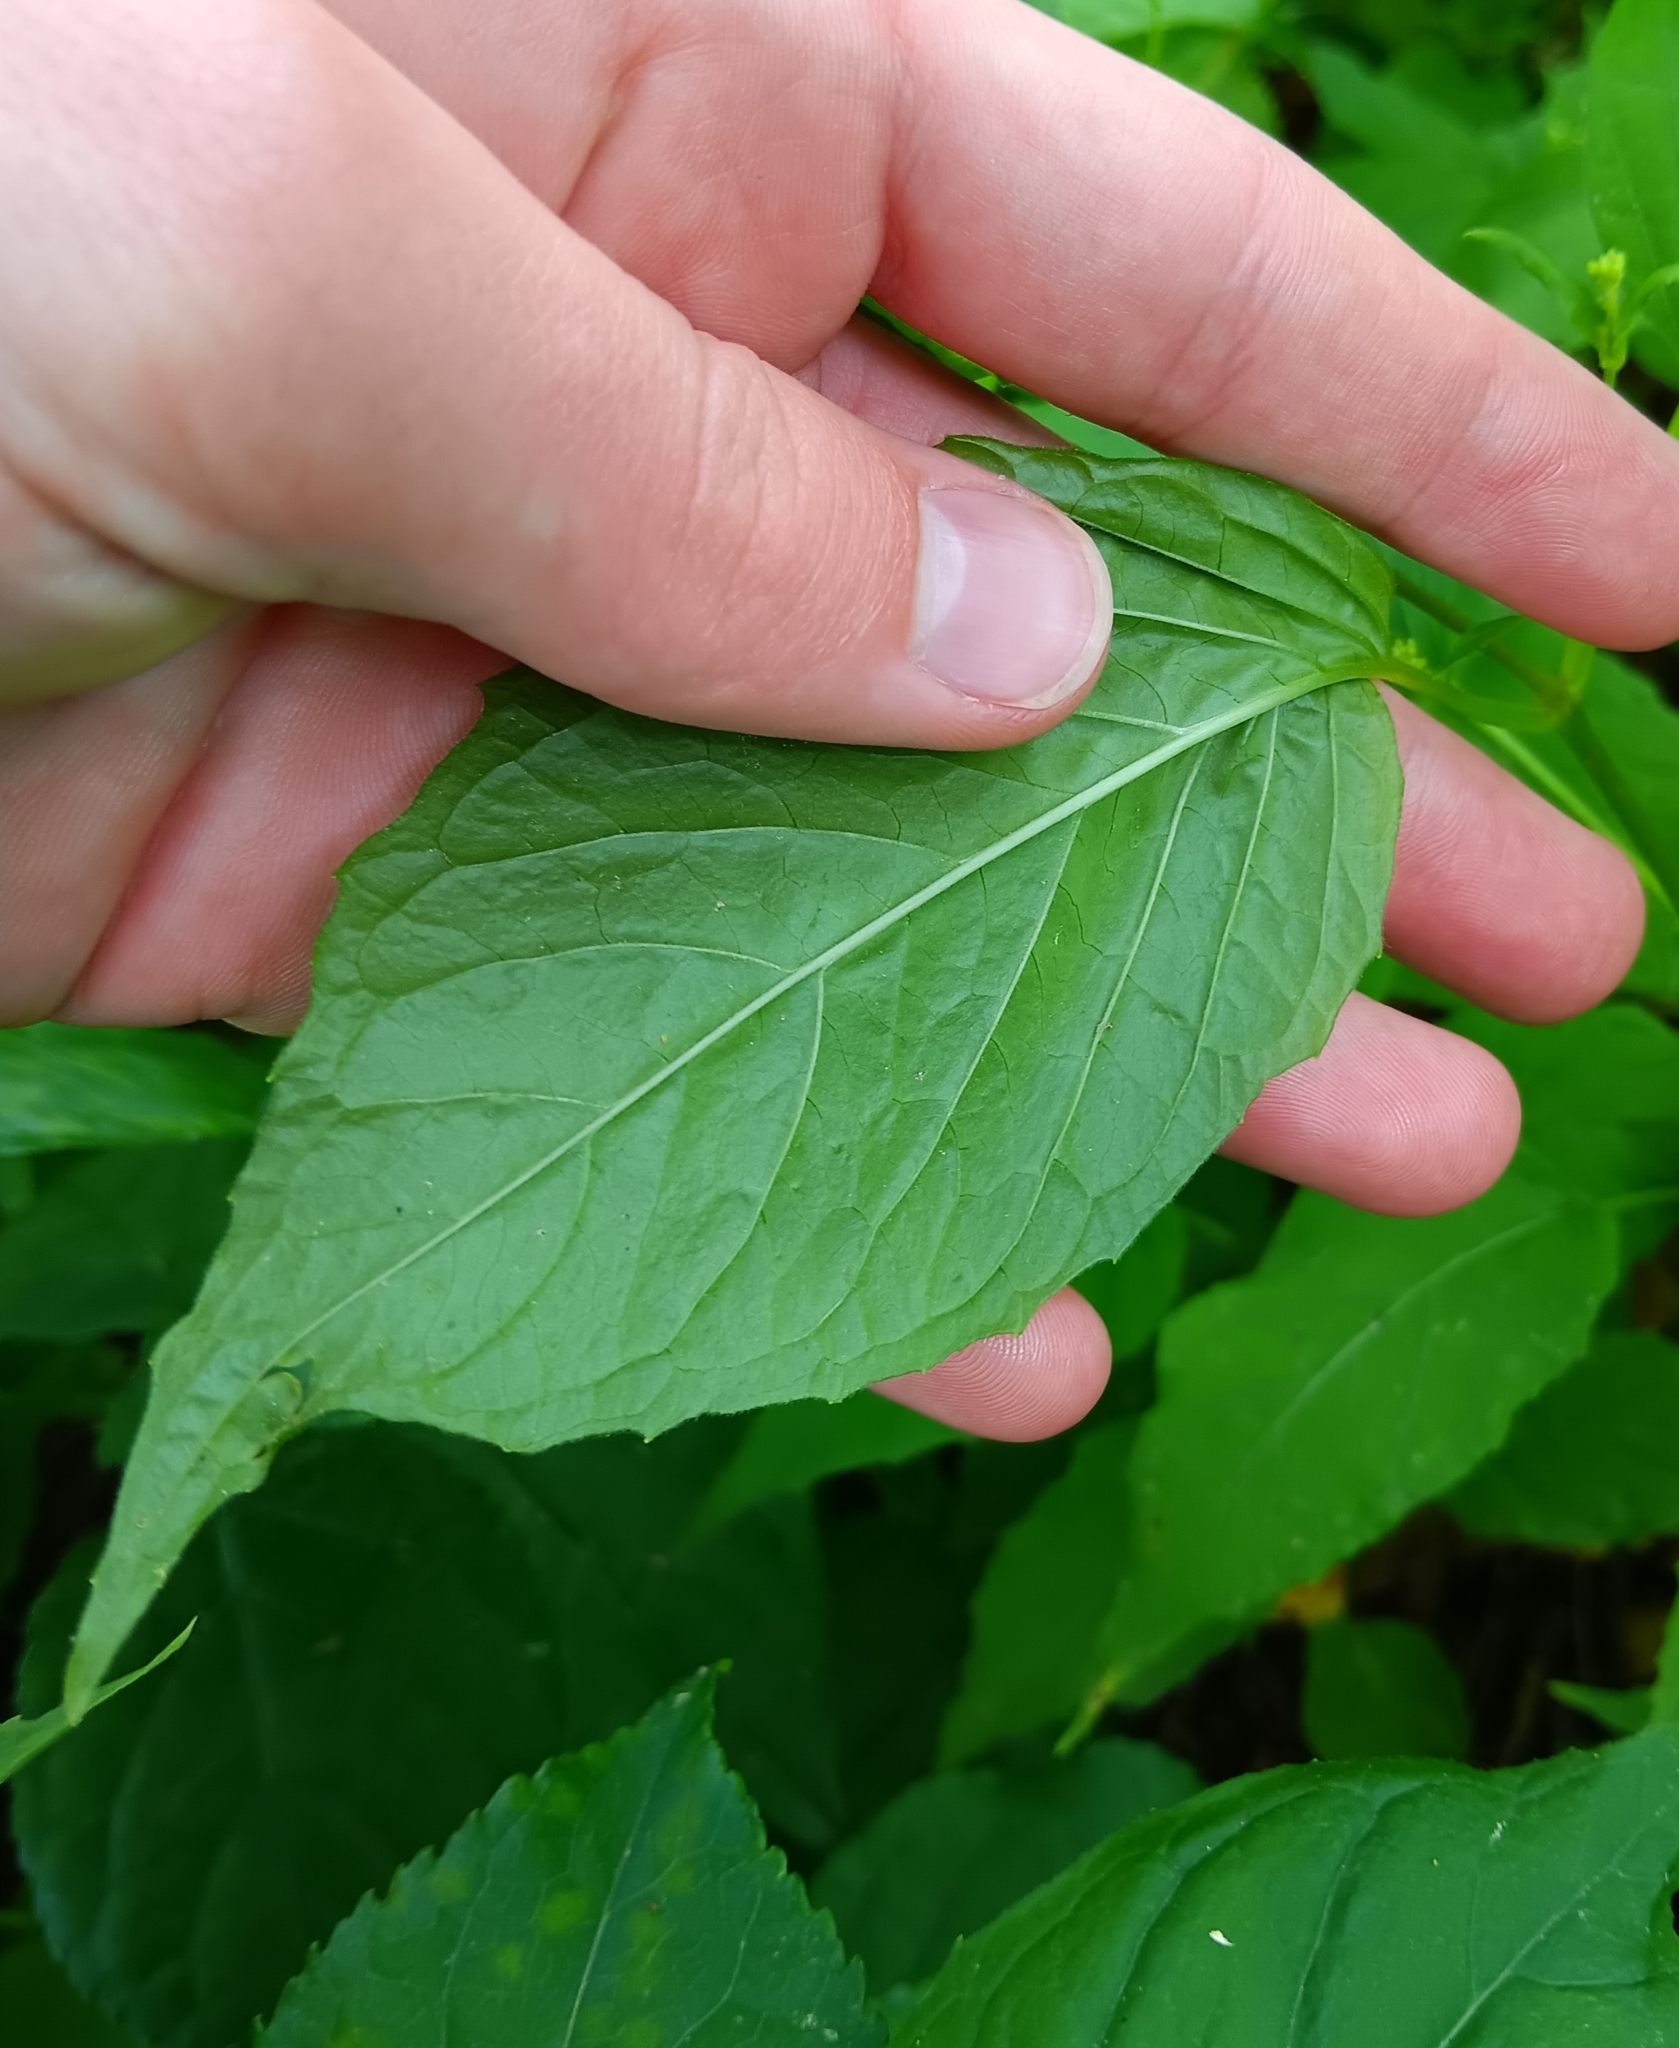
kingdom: Plantae
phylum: Tracheophyta
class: Magnoliopsida
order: Myrtales
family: Onagraceae
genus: Circaea
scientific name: Circaea canadensis
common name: Broad-leaved enchanter's nightshade
